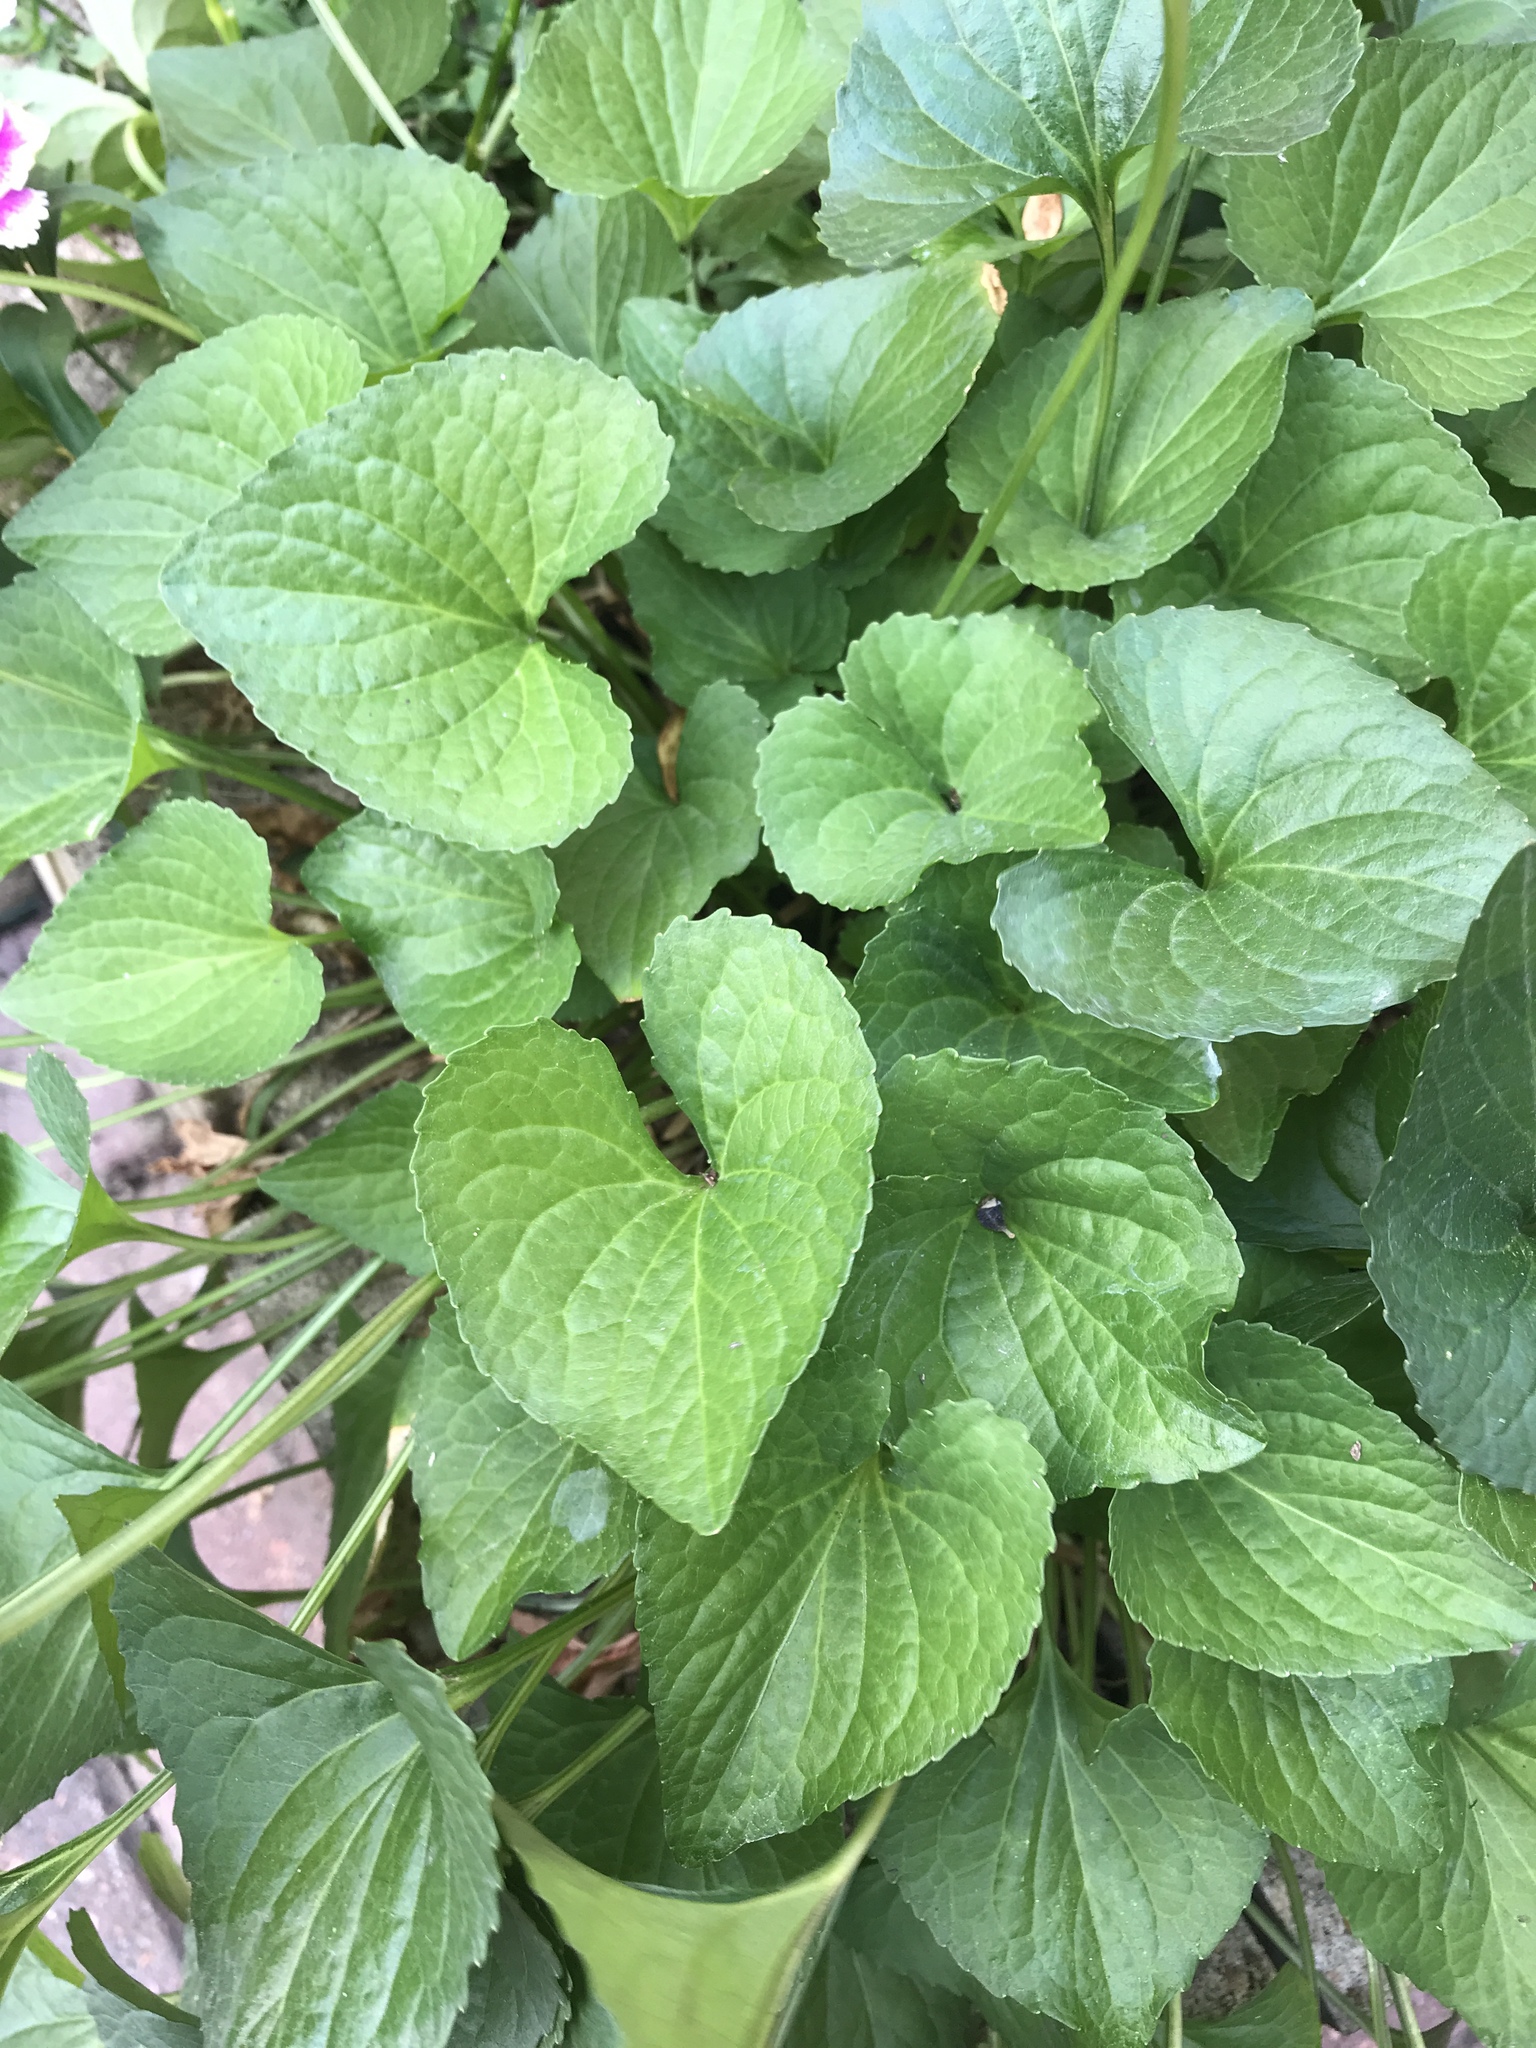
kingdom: Plantae
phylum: Tracheophyta
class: Magnoliopsida
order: Malpighiales
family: Violaceae
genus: Viola
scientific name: Viola sororia
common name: Dooryard violet
